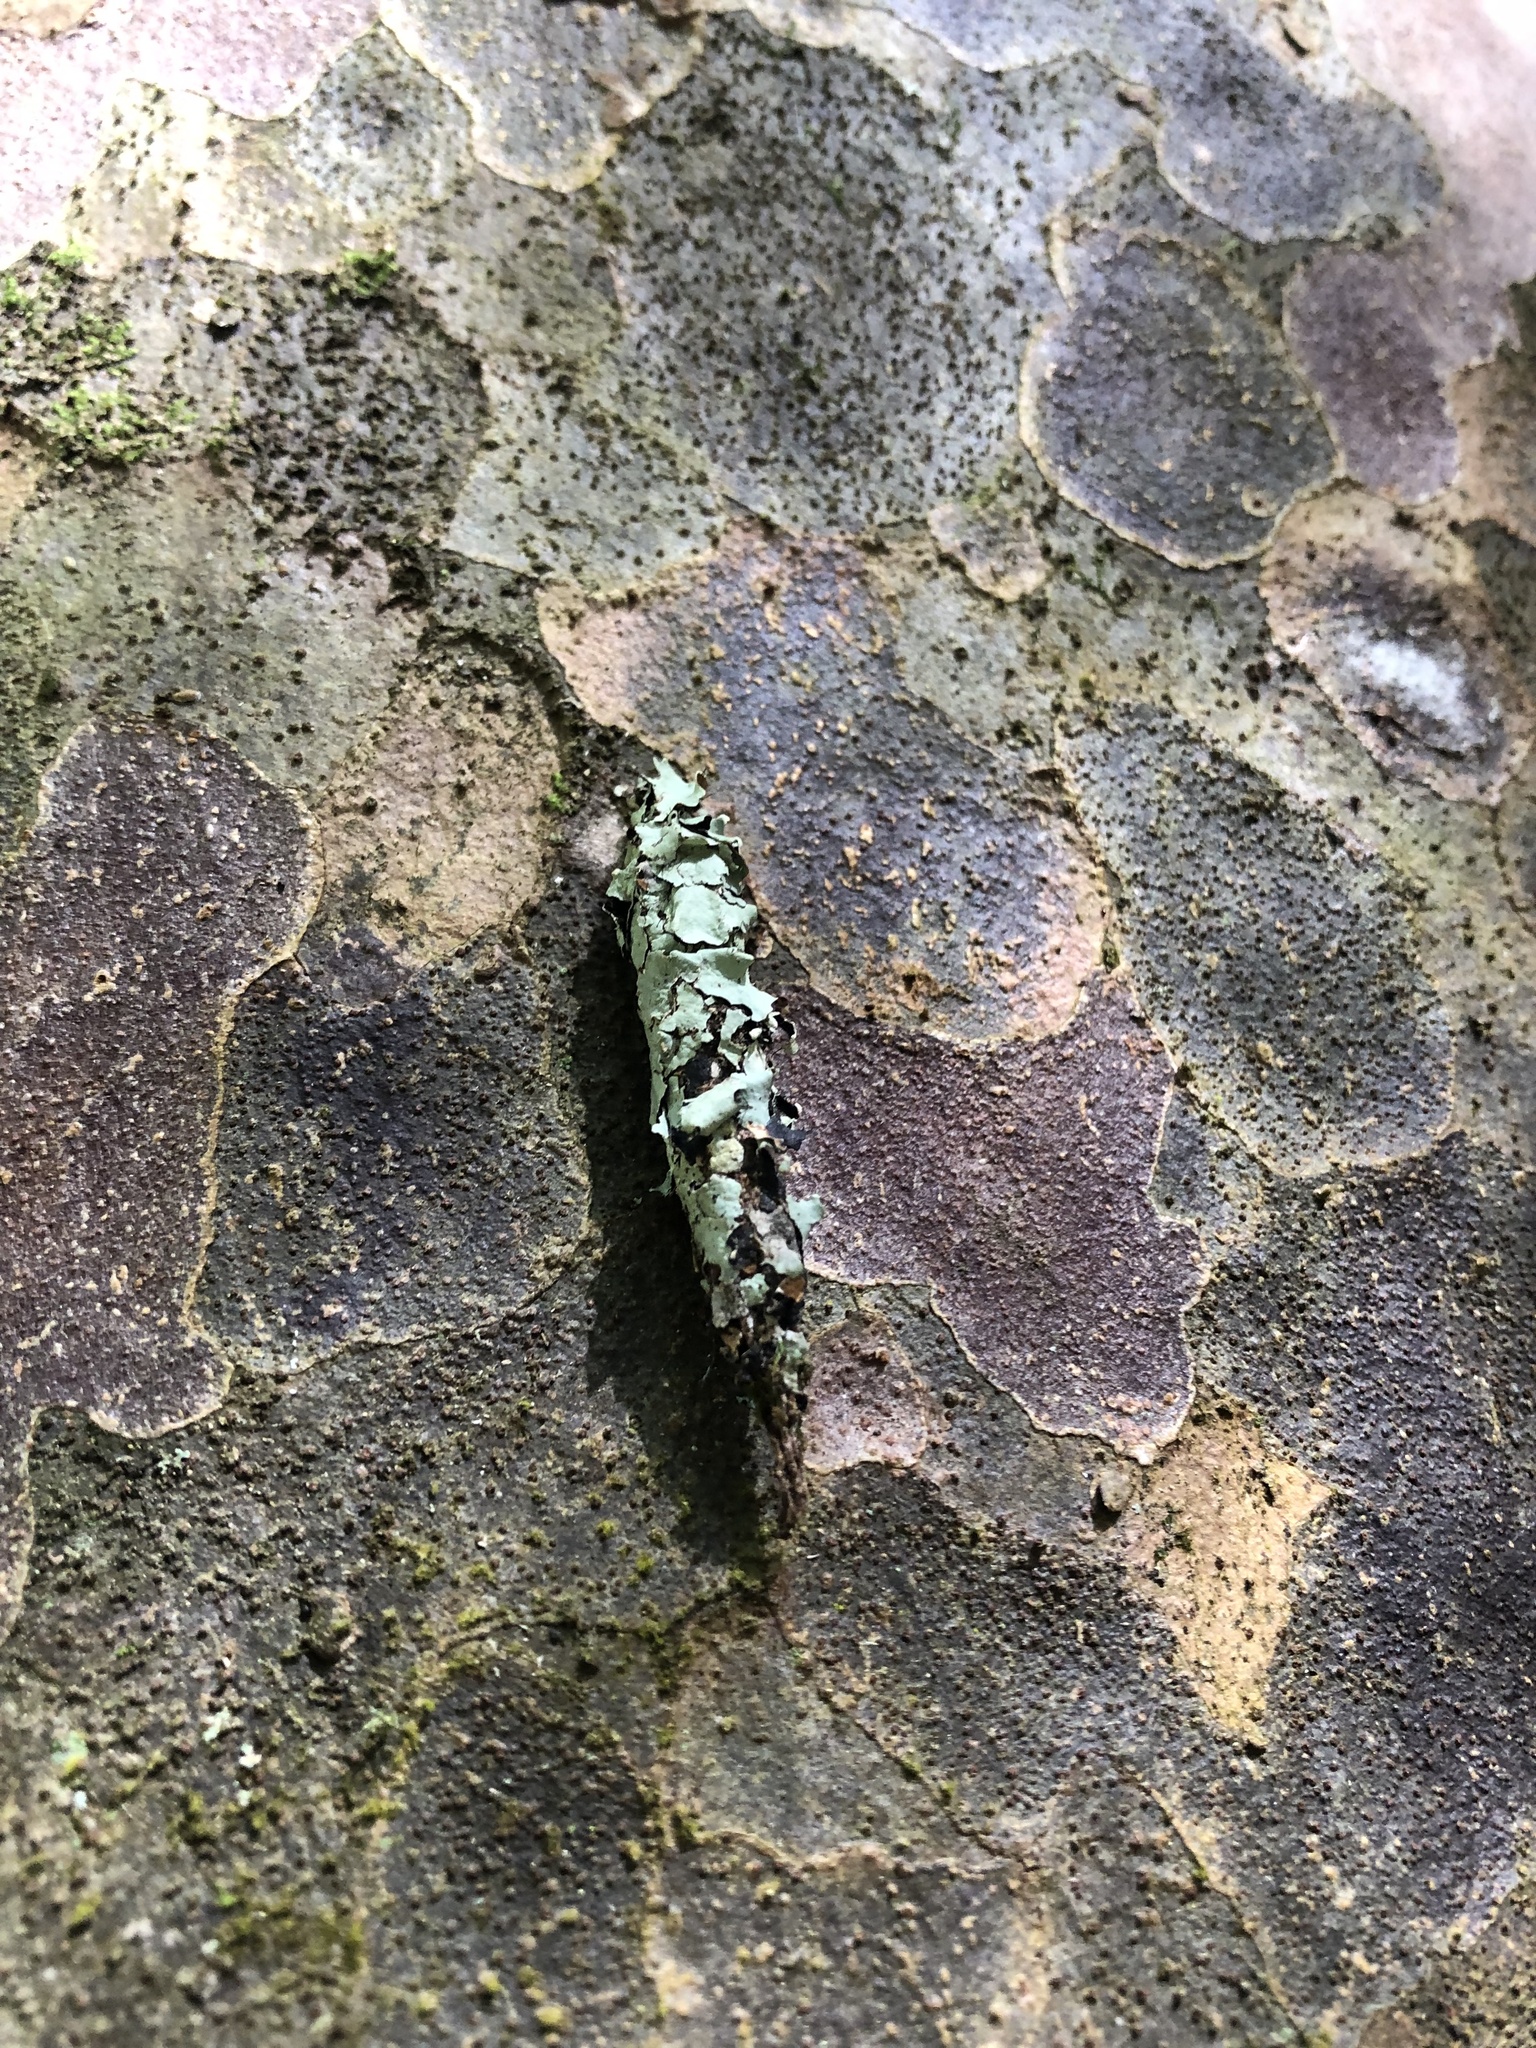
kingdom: Animalia
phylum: Arthropoda
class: Insecta
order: Lepidoptera
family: Psychidae
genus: Liothula
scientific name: Liothula omnivora
